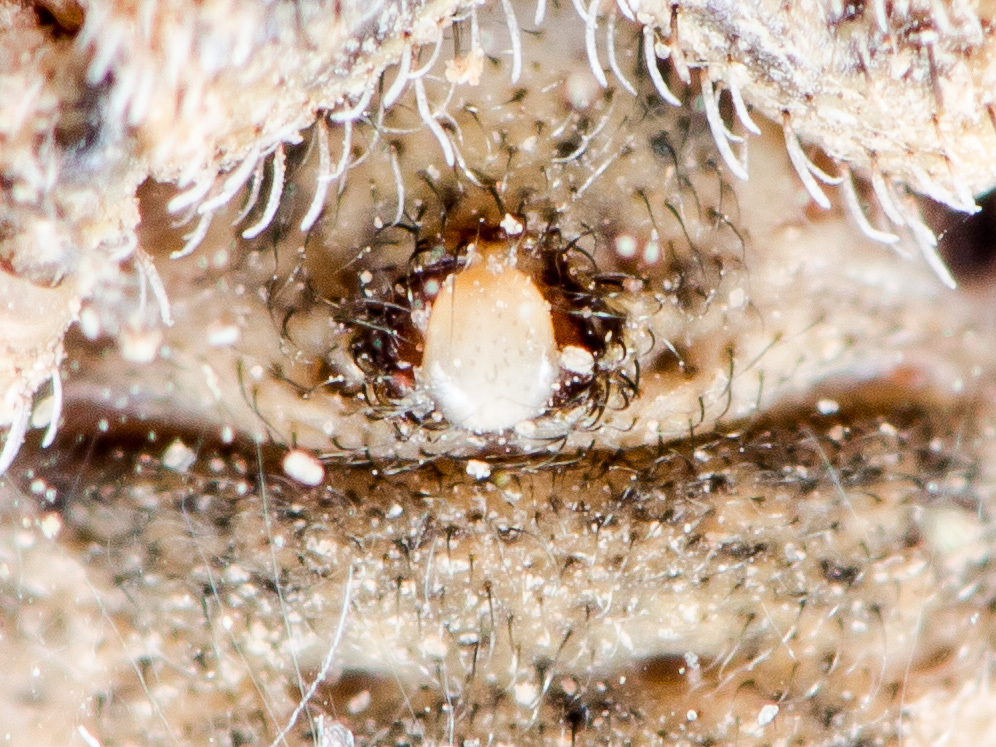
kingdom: Animalia
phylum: Arthropoda
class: Arachnida
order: Araneae
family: Thomisidae
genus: Ozyptila
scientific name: Ozyptila lugubris
